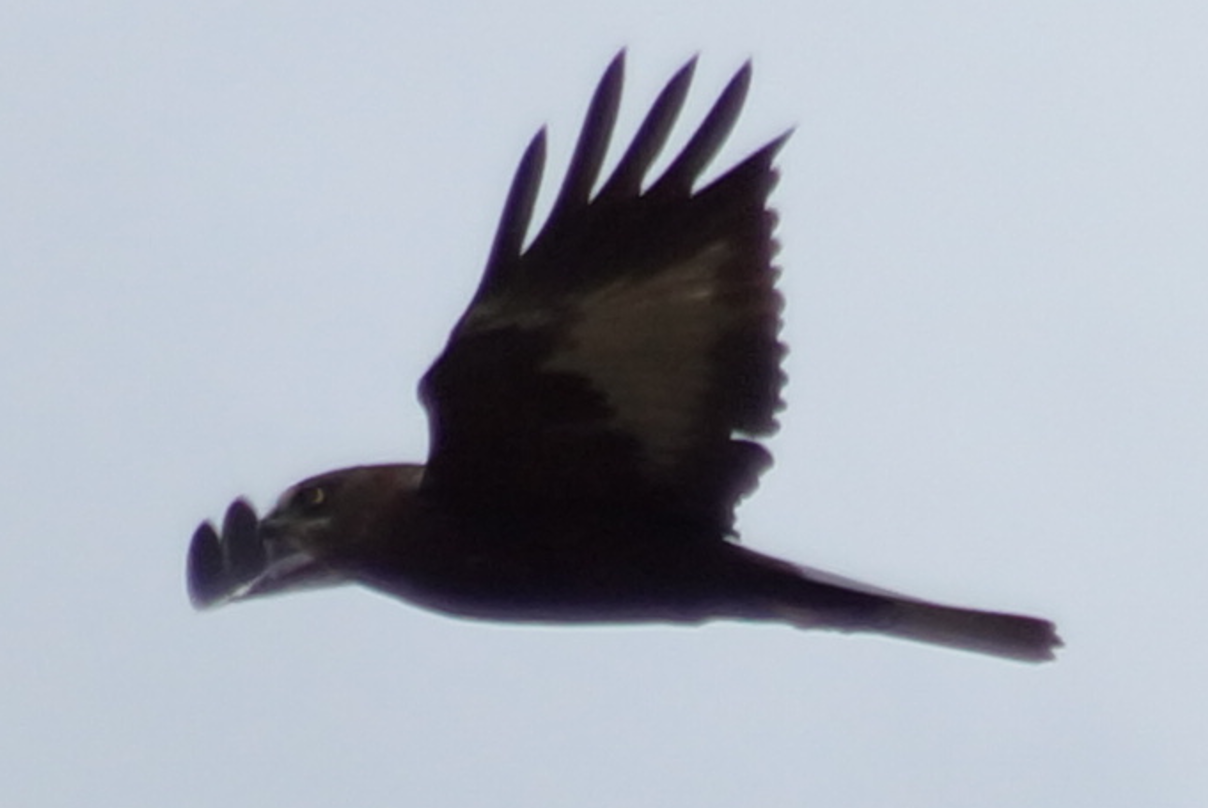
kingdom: Animalia
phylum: Chordata
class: Aves
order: Accipitriformes
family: Accipitridae
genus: Circus
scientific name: Circus aeruginosus
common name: Western marsh harrier
